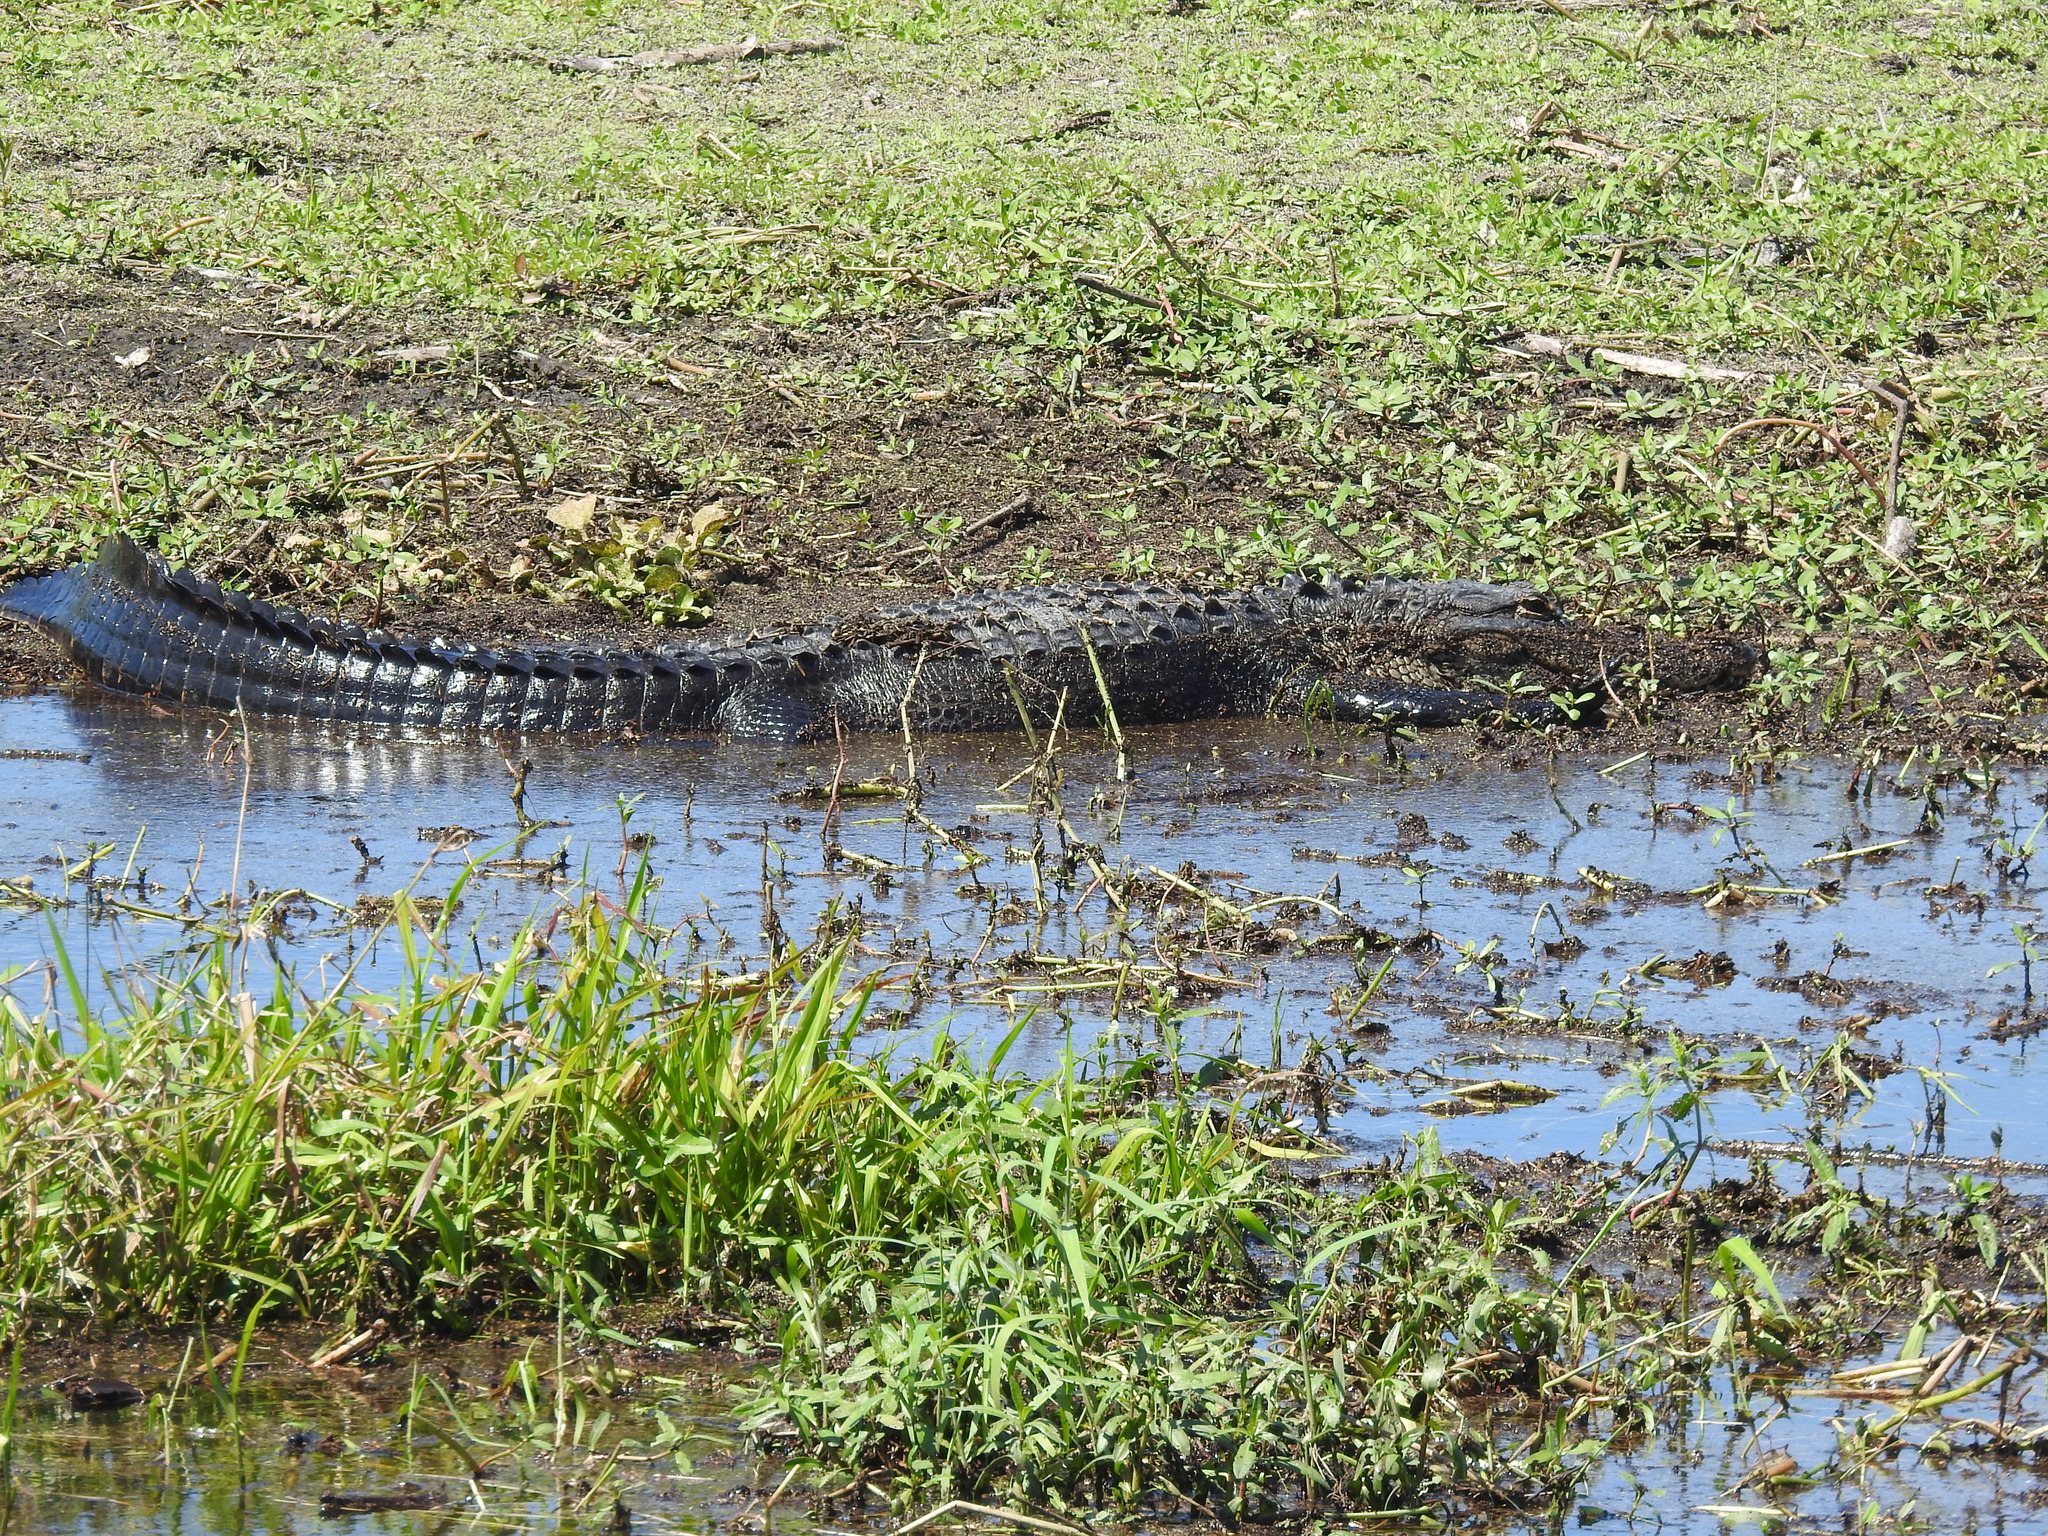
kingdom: Animalia
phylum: Chordata
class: Crocodylia
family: Alligatoridae
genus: Alligator
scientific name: Alligator mississippiensis
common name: American alligator
